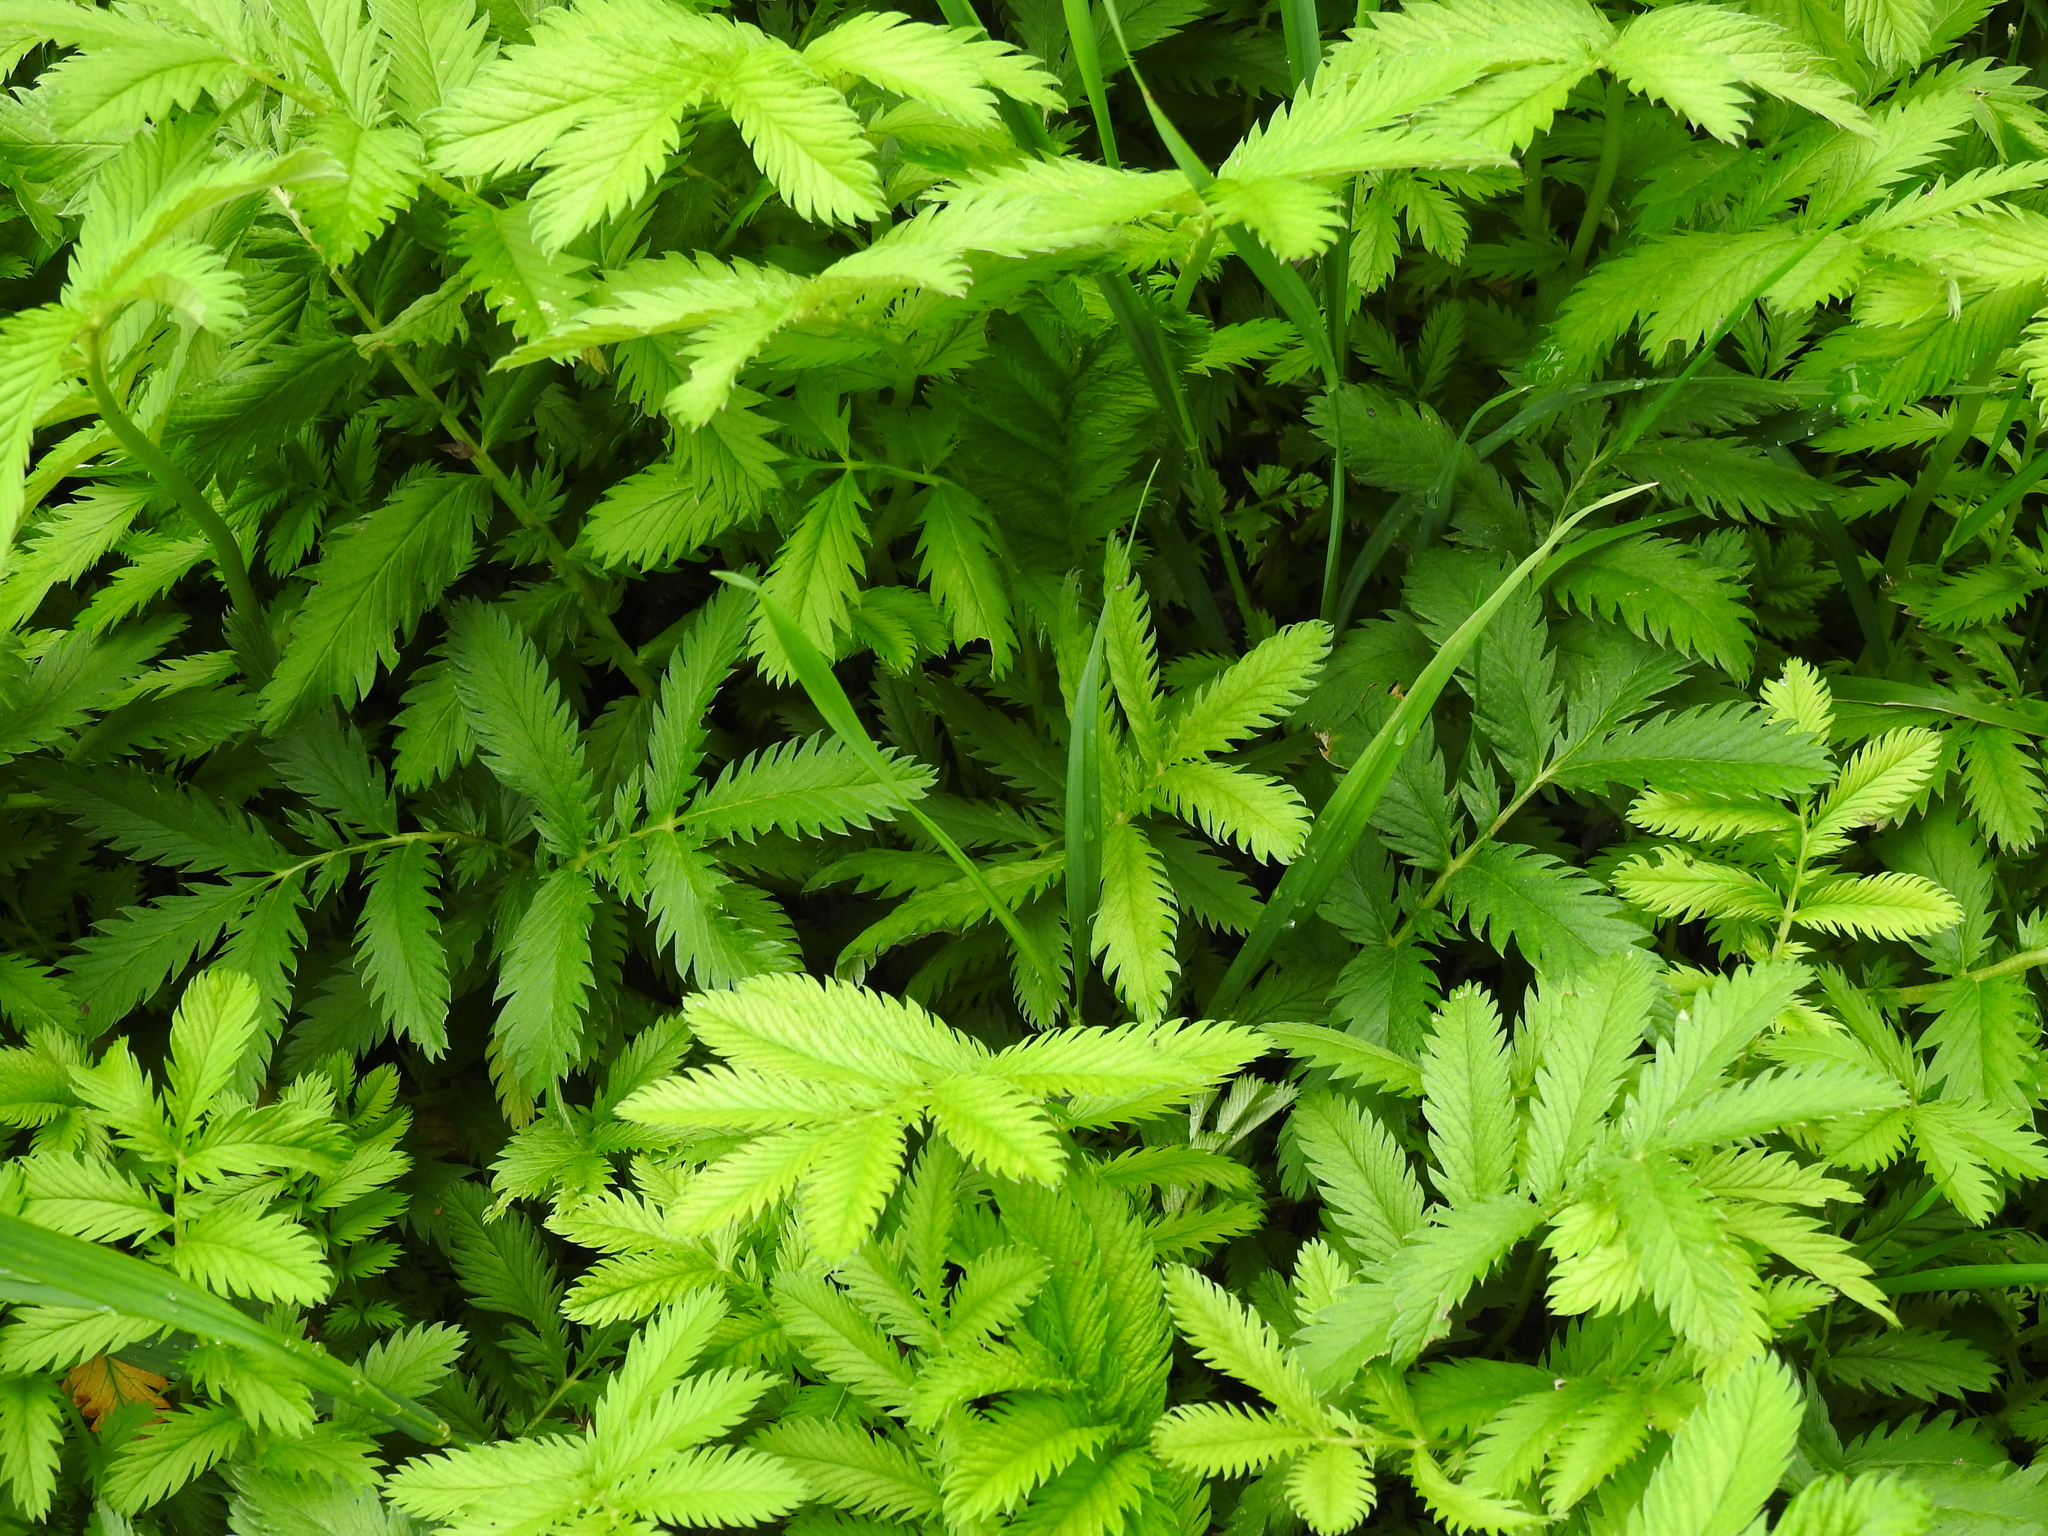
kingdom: Plantae
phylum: Tracheophyta
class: Magnoliopsida
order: Rosales
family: Rosaceae
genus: Argentina
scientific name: Argentina anserina
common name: Common silverweed
